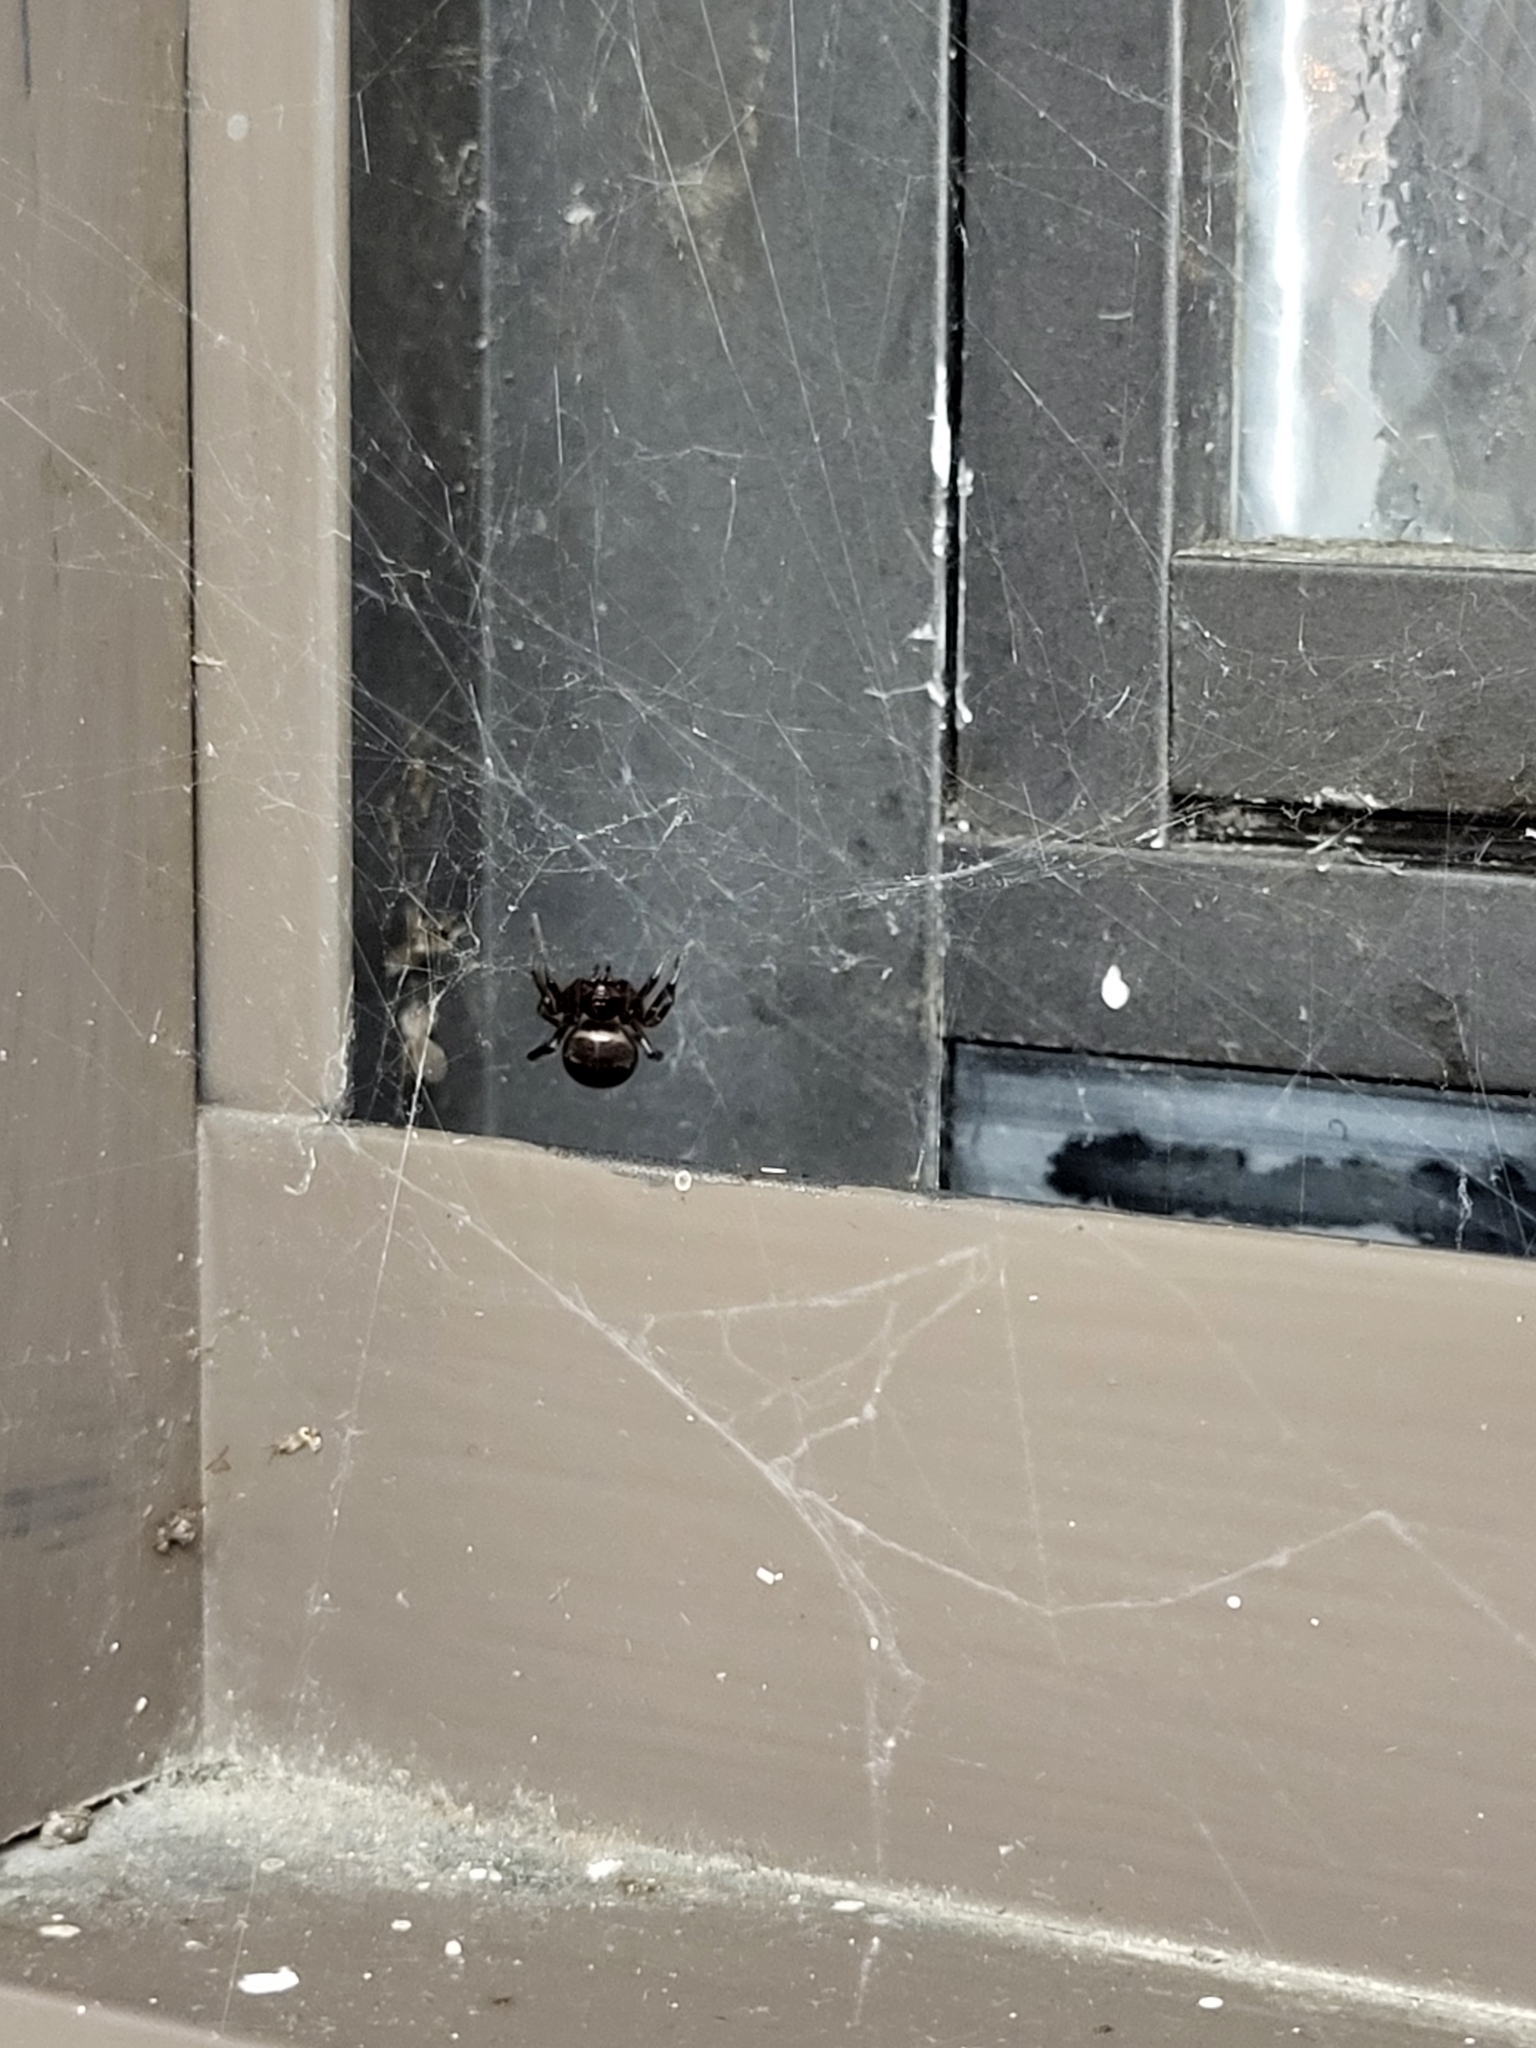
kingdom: Animalia
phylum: Arthropoda
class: Arachnida
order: Araneae
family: Theridiidae
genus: Steatoda
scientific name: Steatoda borealis
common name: Boreal combfoot
